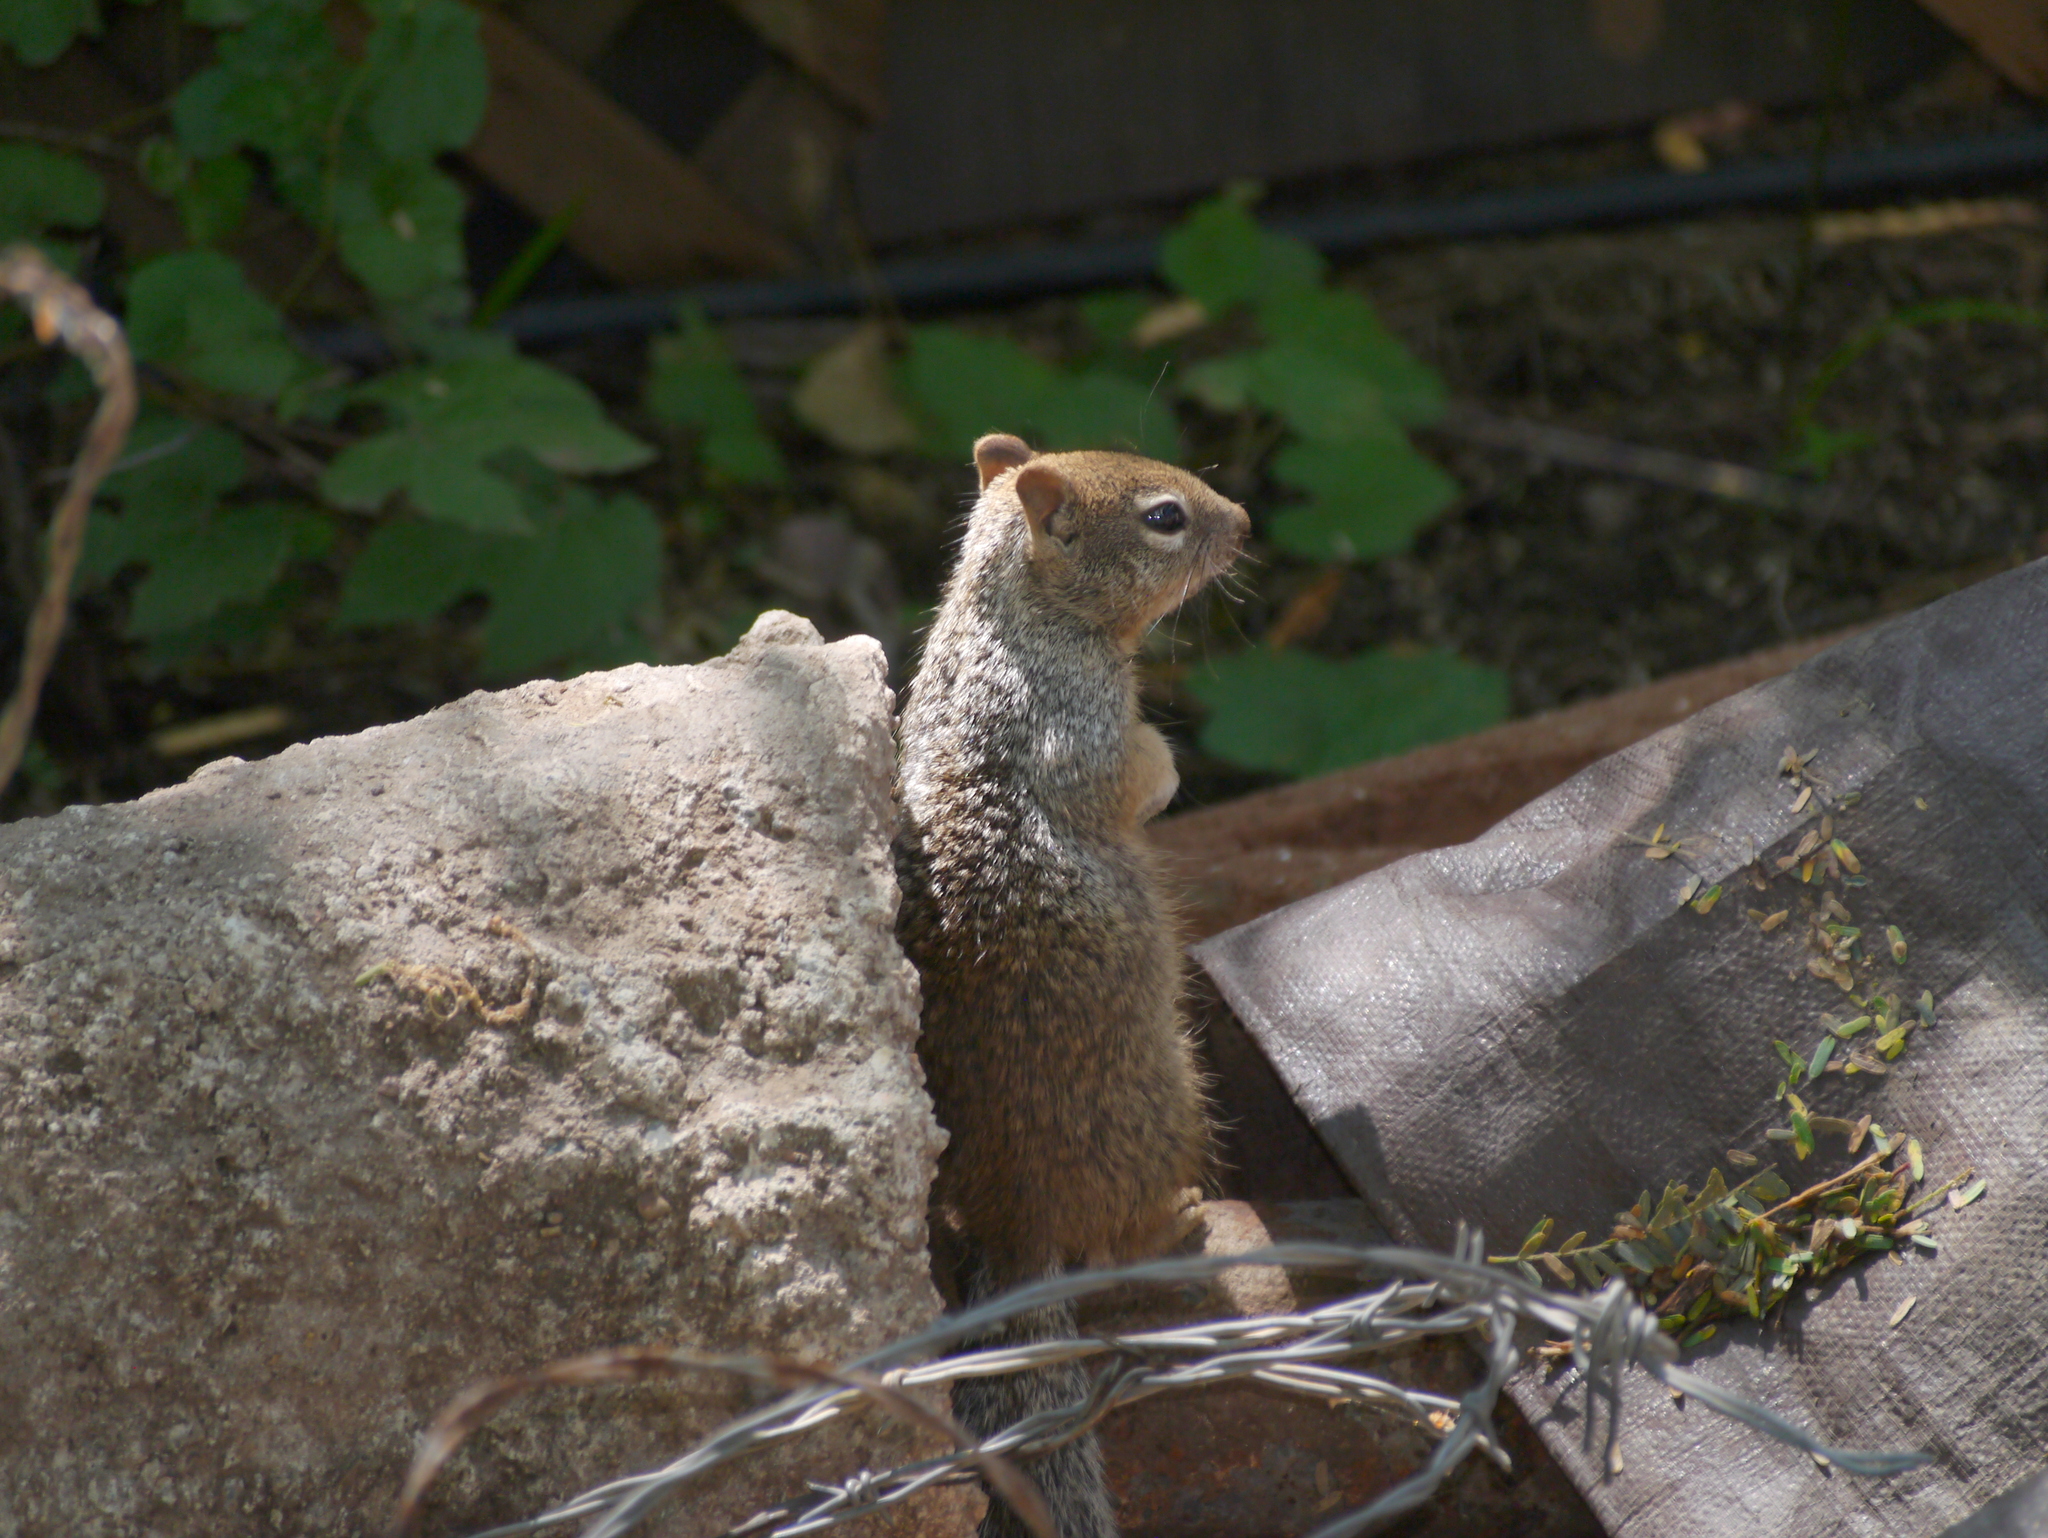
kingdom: Animalia
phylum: Chordata
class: Mammalia
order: Rodentia
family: Sciuridae
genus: Otospermophilus
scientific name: Otospermophilus variegatus
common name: Rock squirrel
